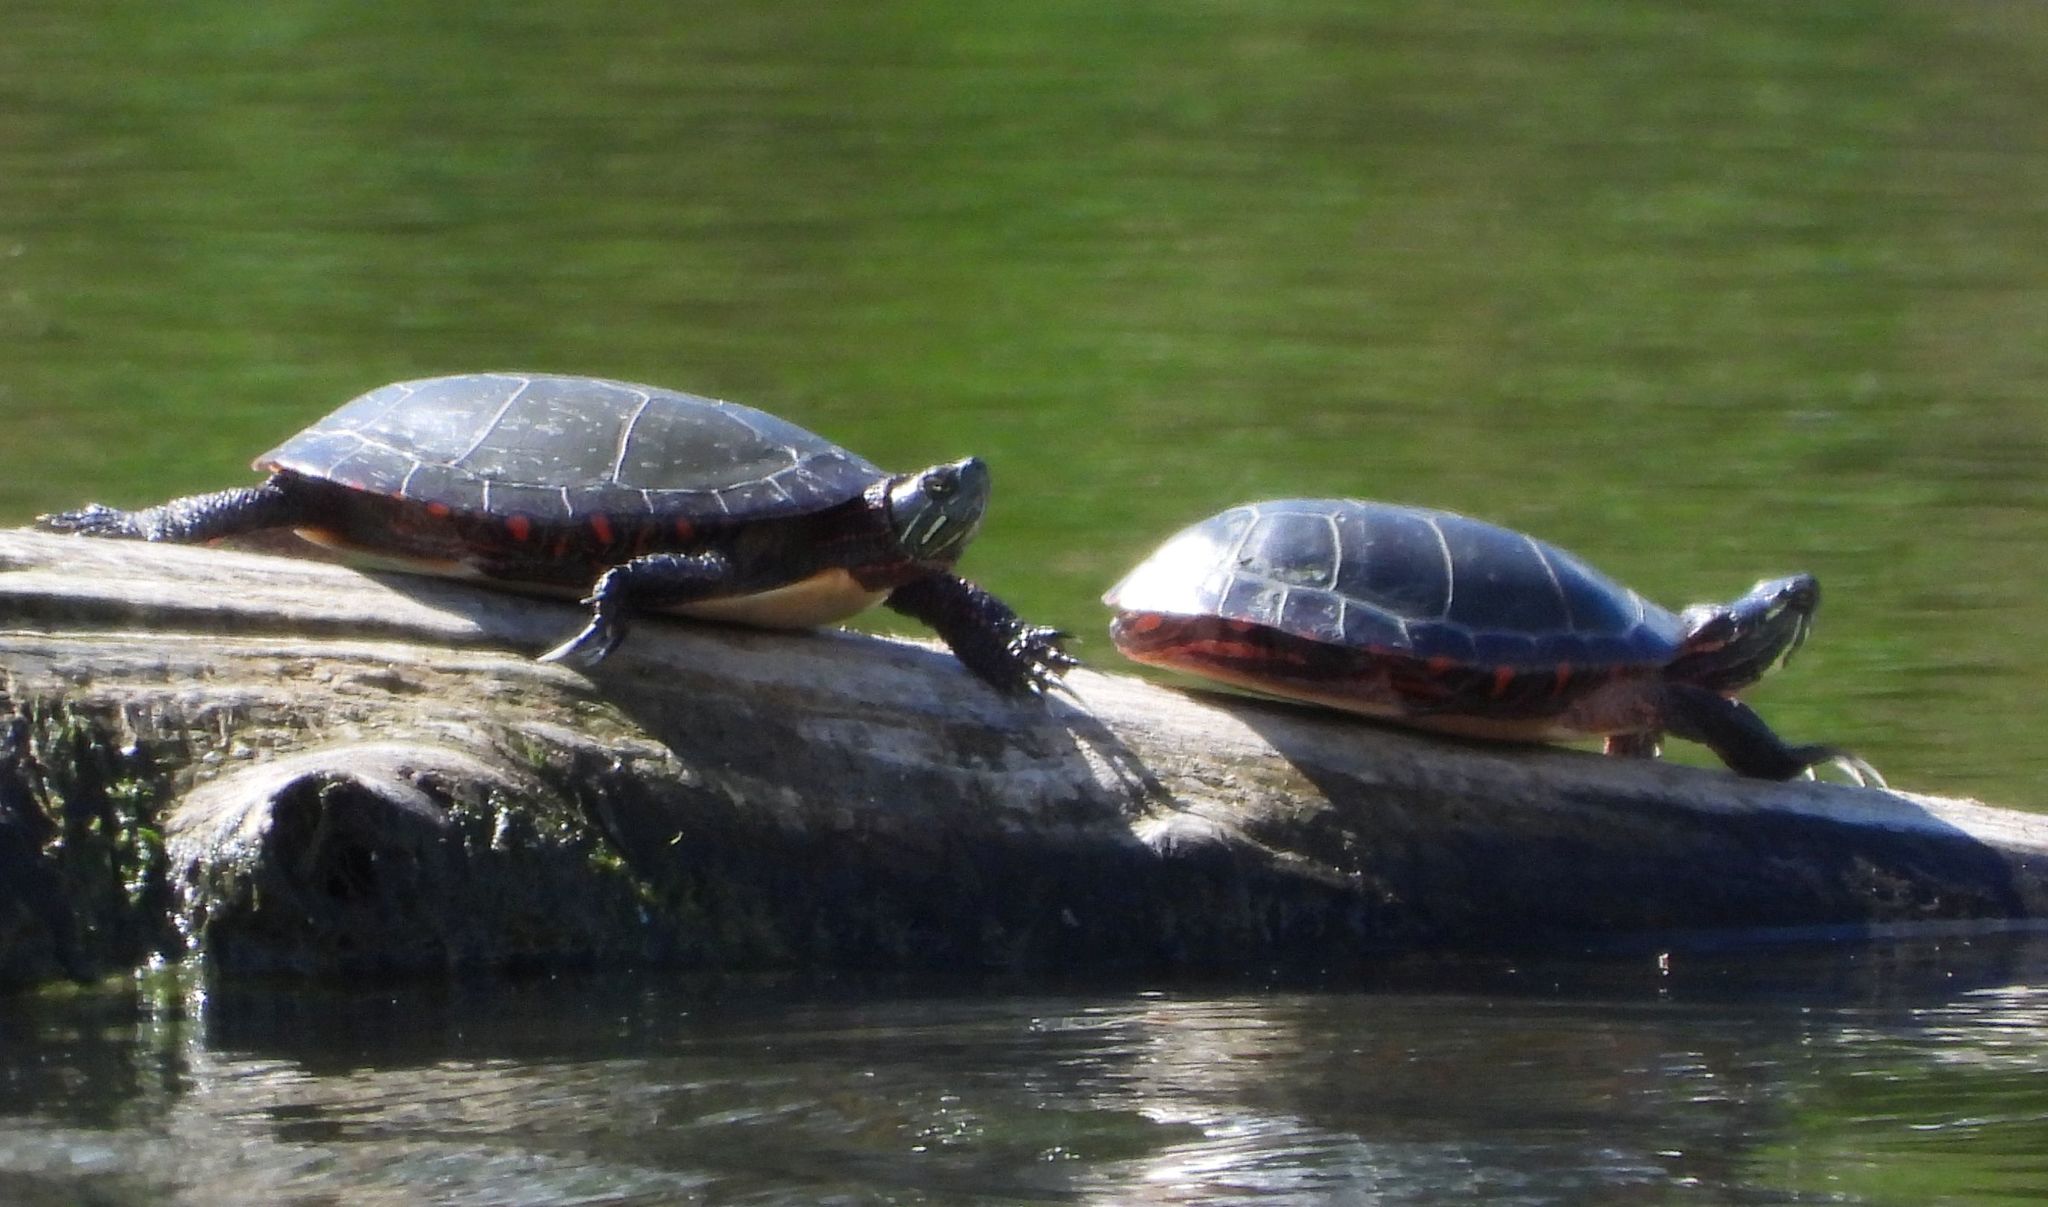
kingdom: Animalia
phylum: Chordata
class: Testudines
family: Emydidae
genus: Chrysemys
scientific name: Chrysemys picta
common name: Painted turtle
